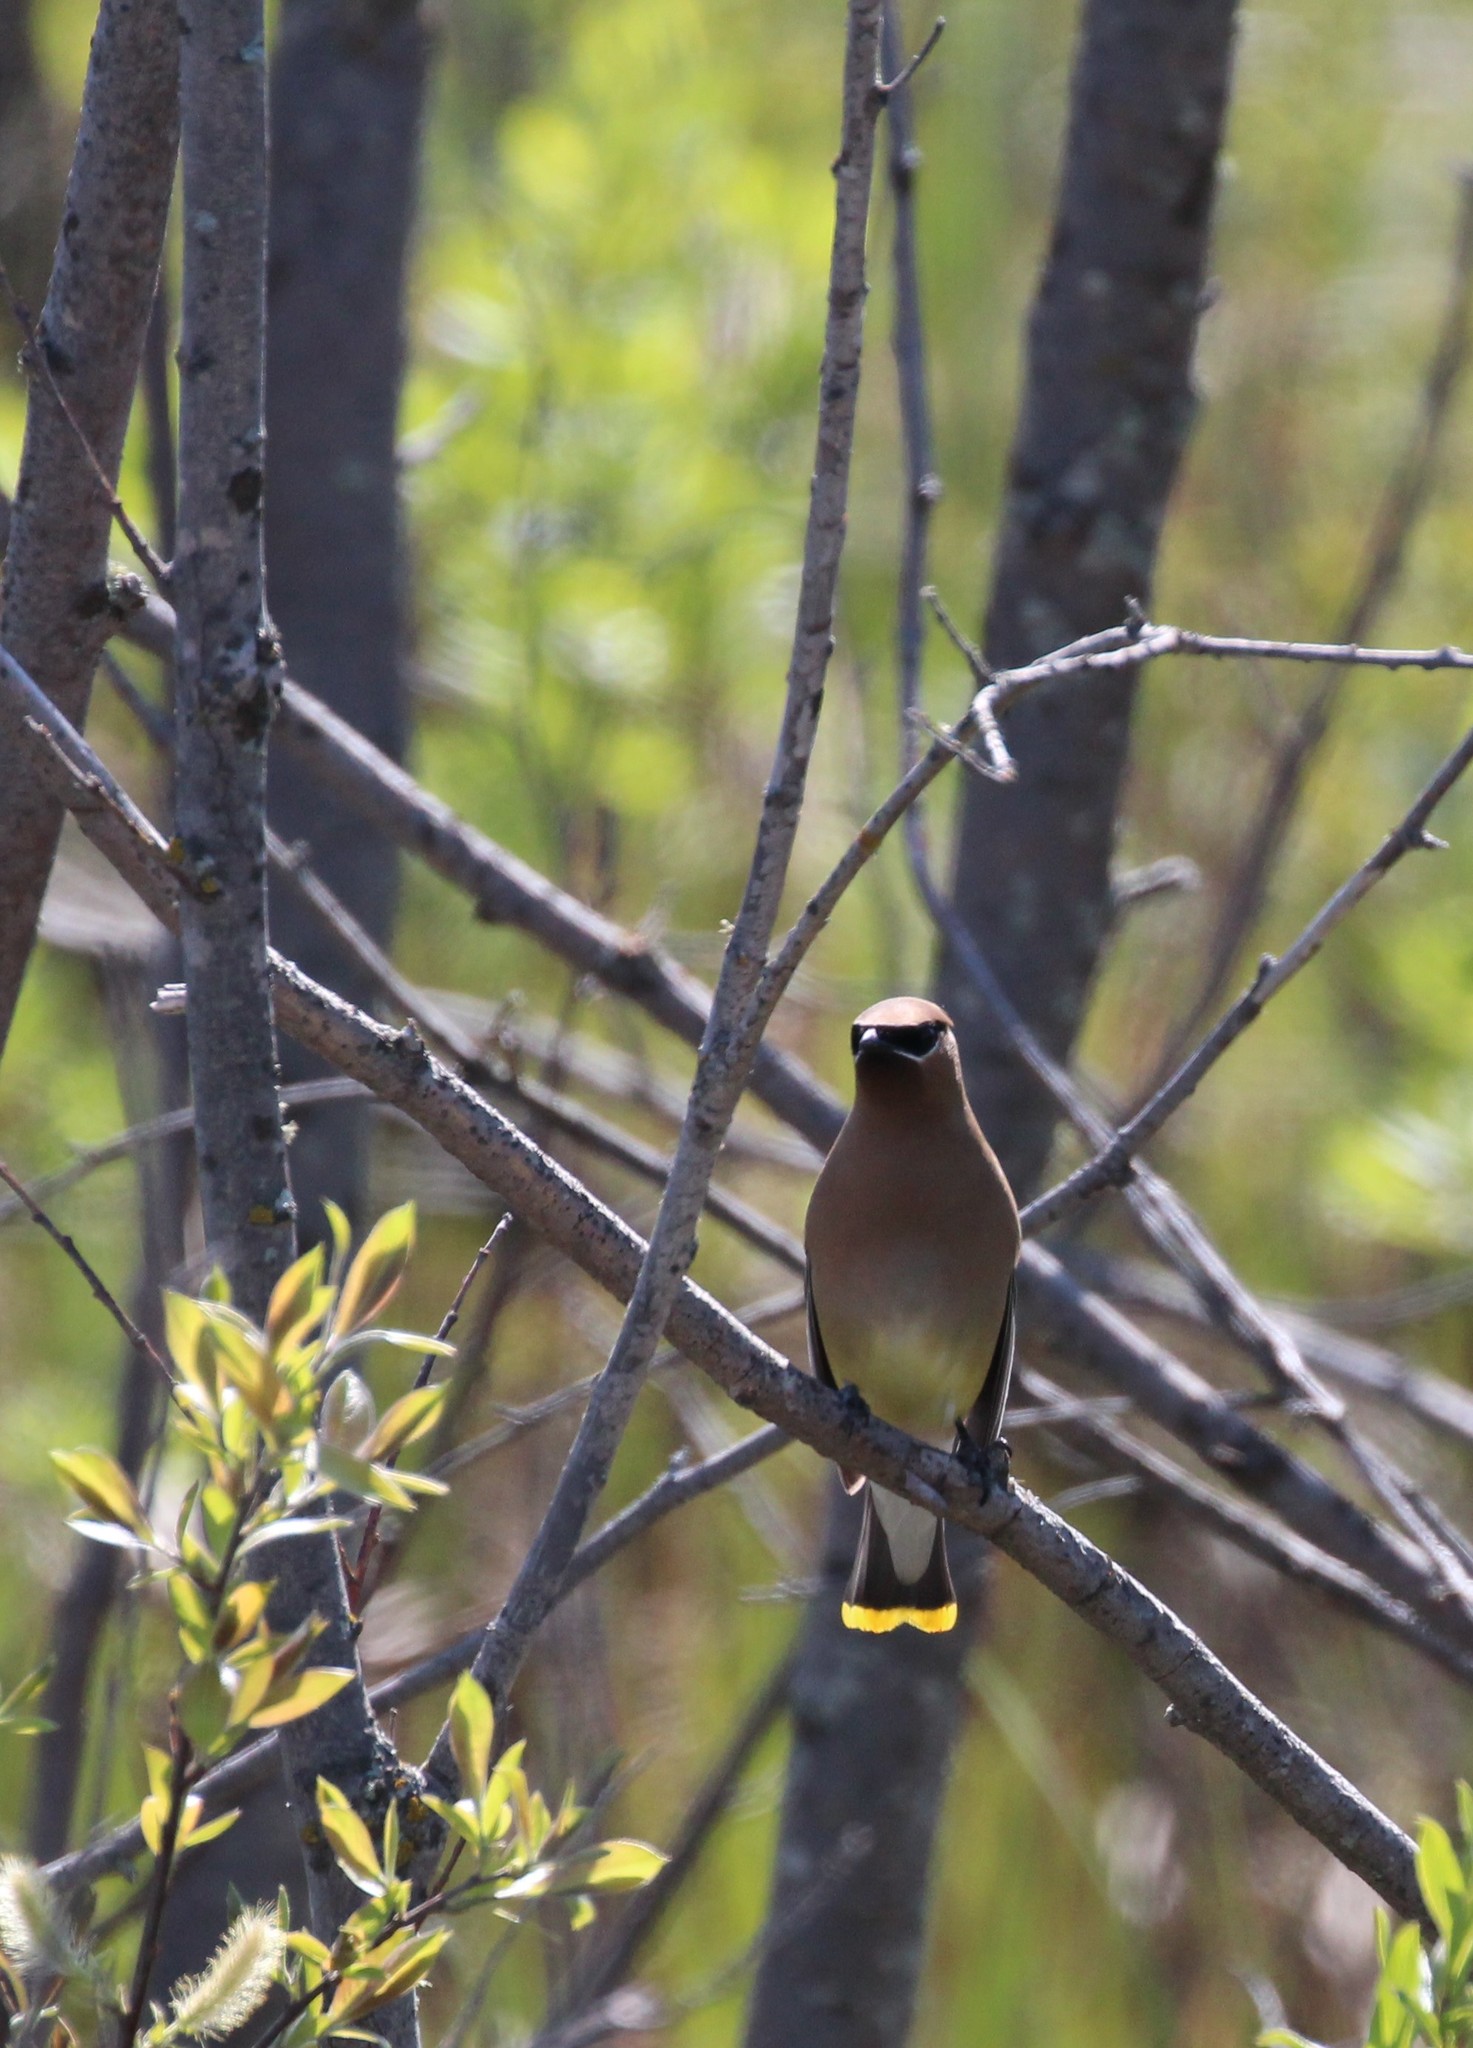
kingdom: Animalia
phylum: Chordata
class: Aves
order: Passeriformes
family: Bombycillidae
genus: Bombycilla
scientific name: Bombycilla cedrorum
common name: Cedar waxwing
